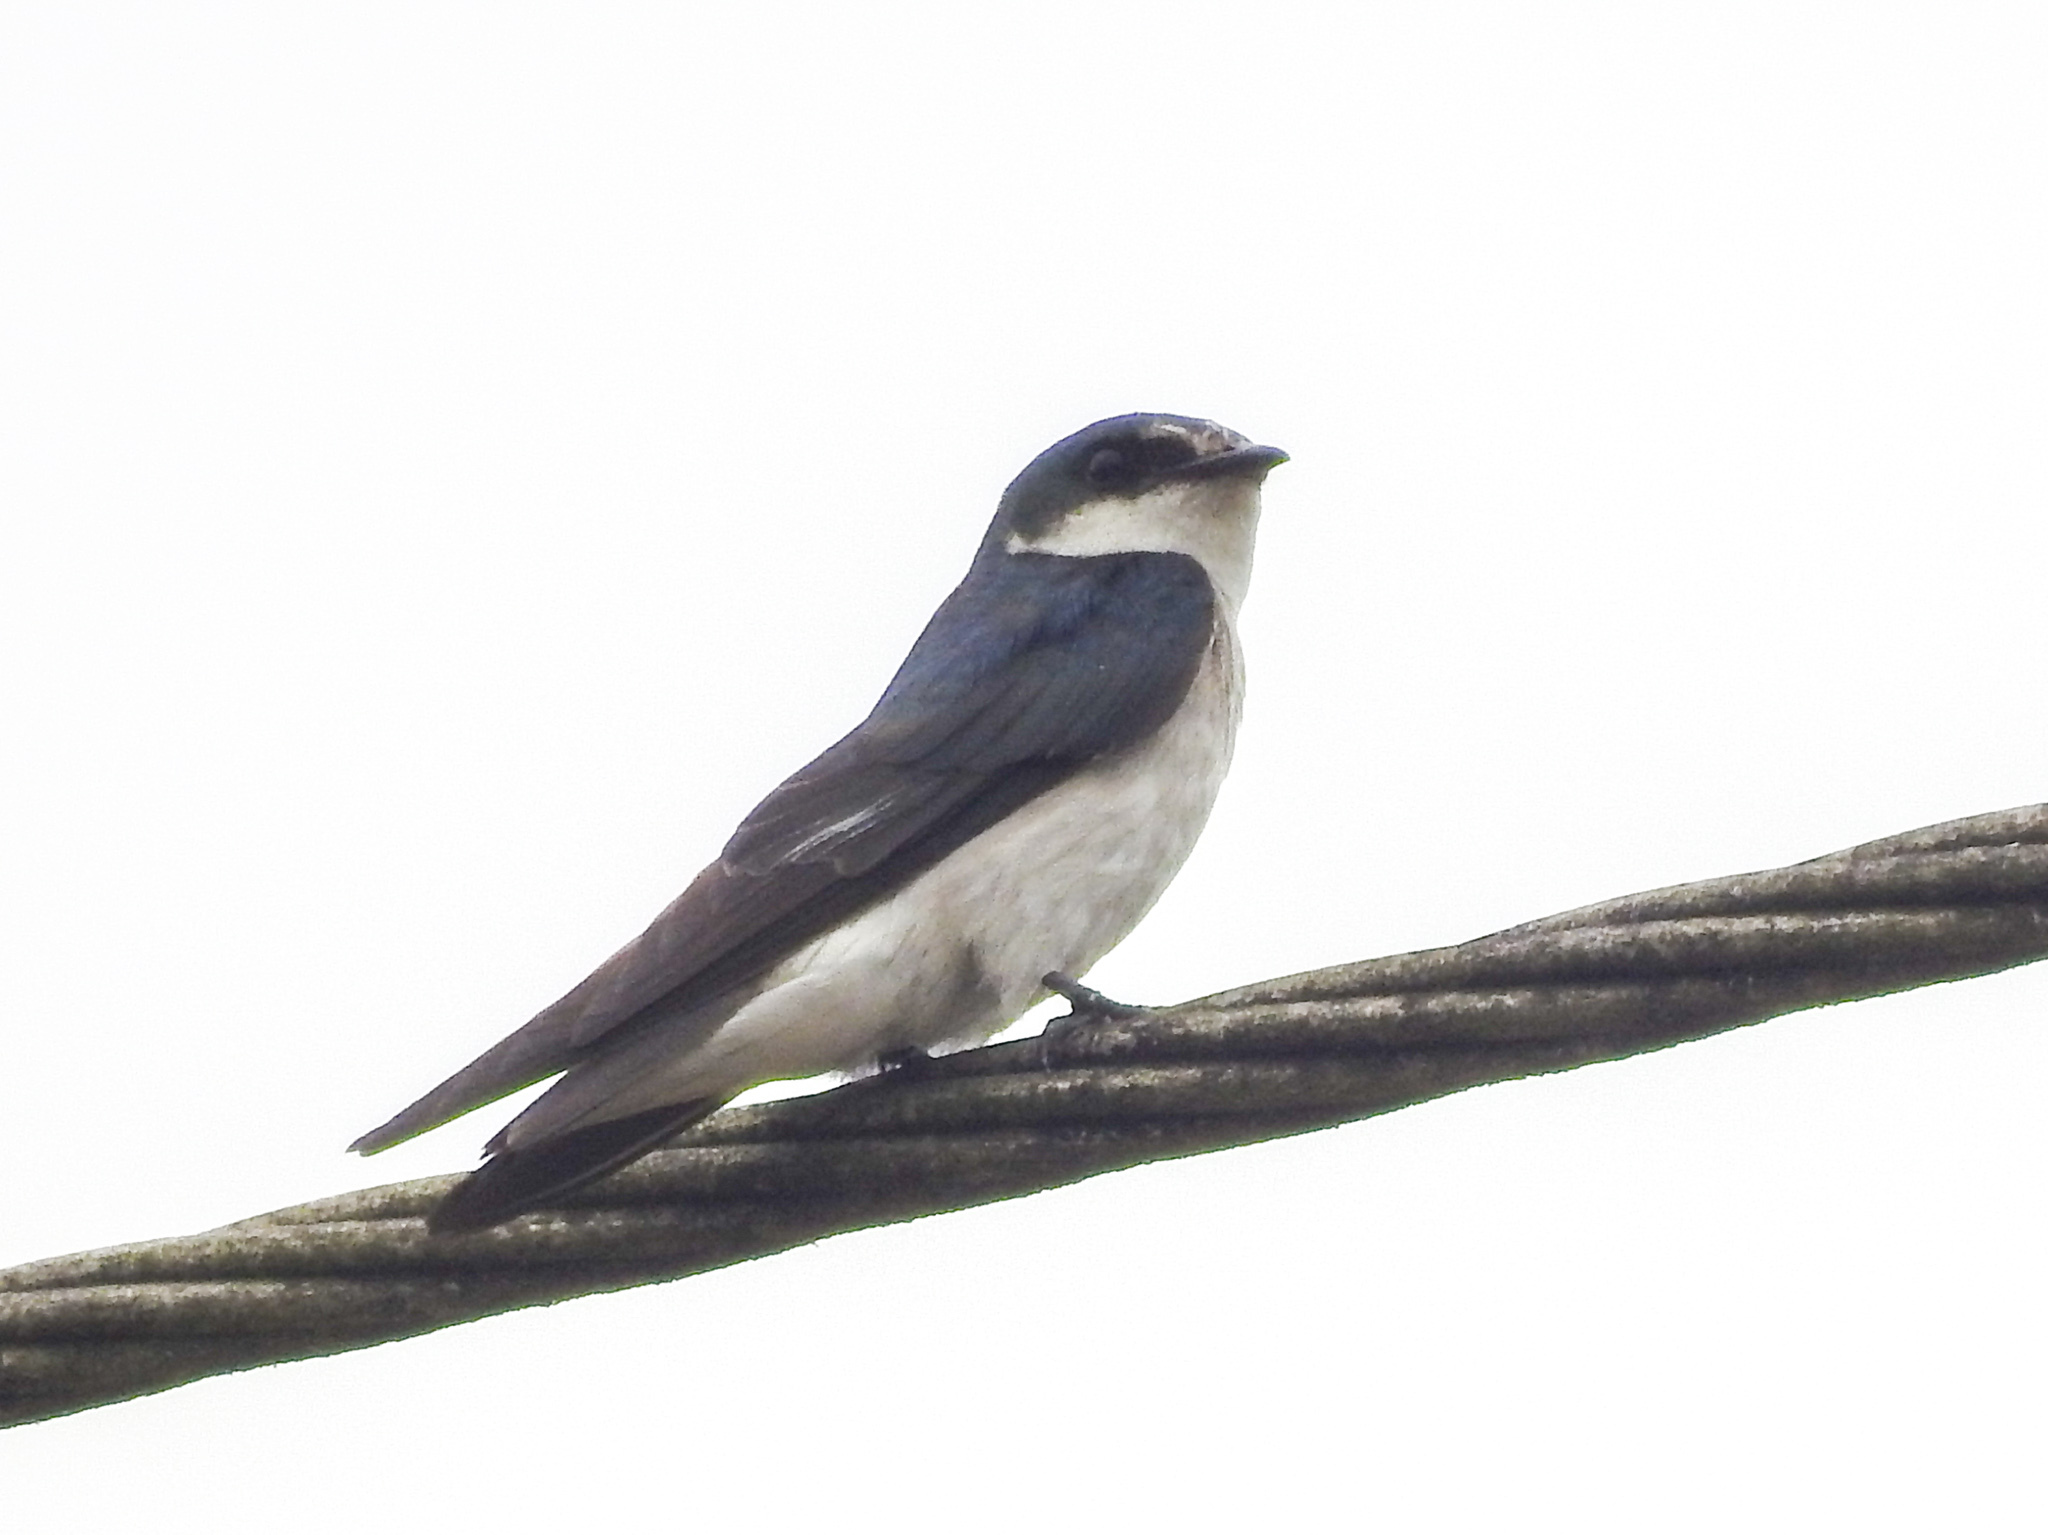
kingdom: Animalia
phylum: Chordata
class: Aves
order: Passeriformes
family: Hirundinidae
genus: Tachycineta
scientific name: Tachycineta albilinea
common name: Mangrove swallow
